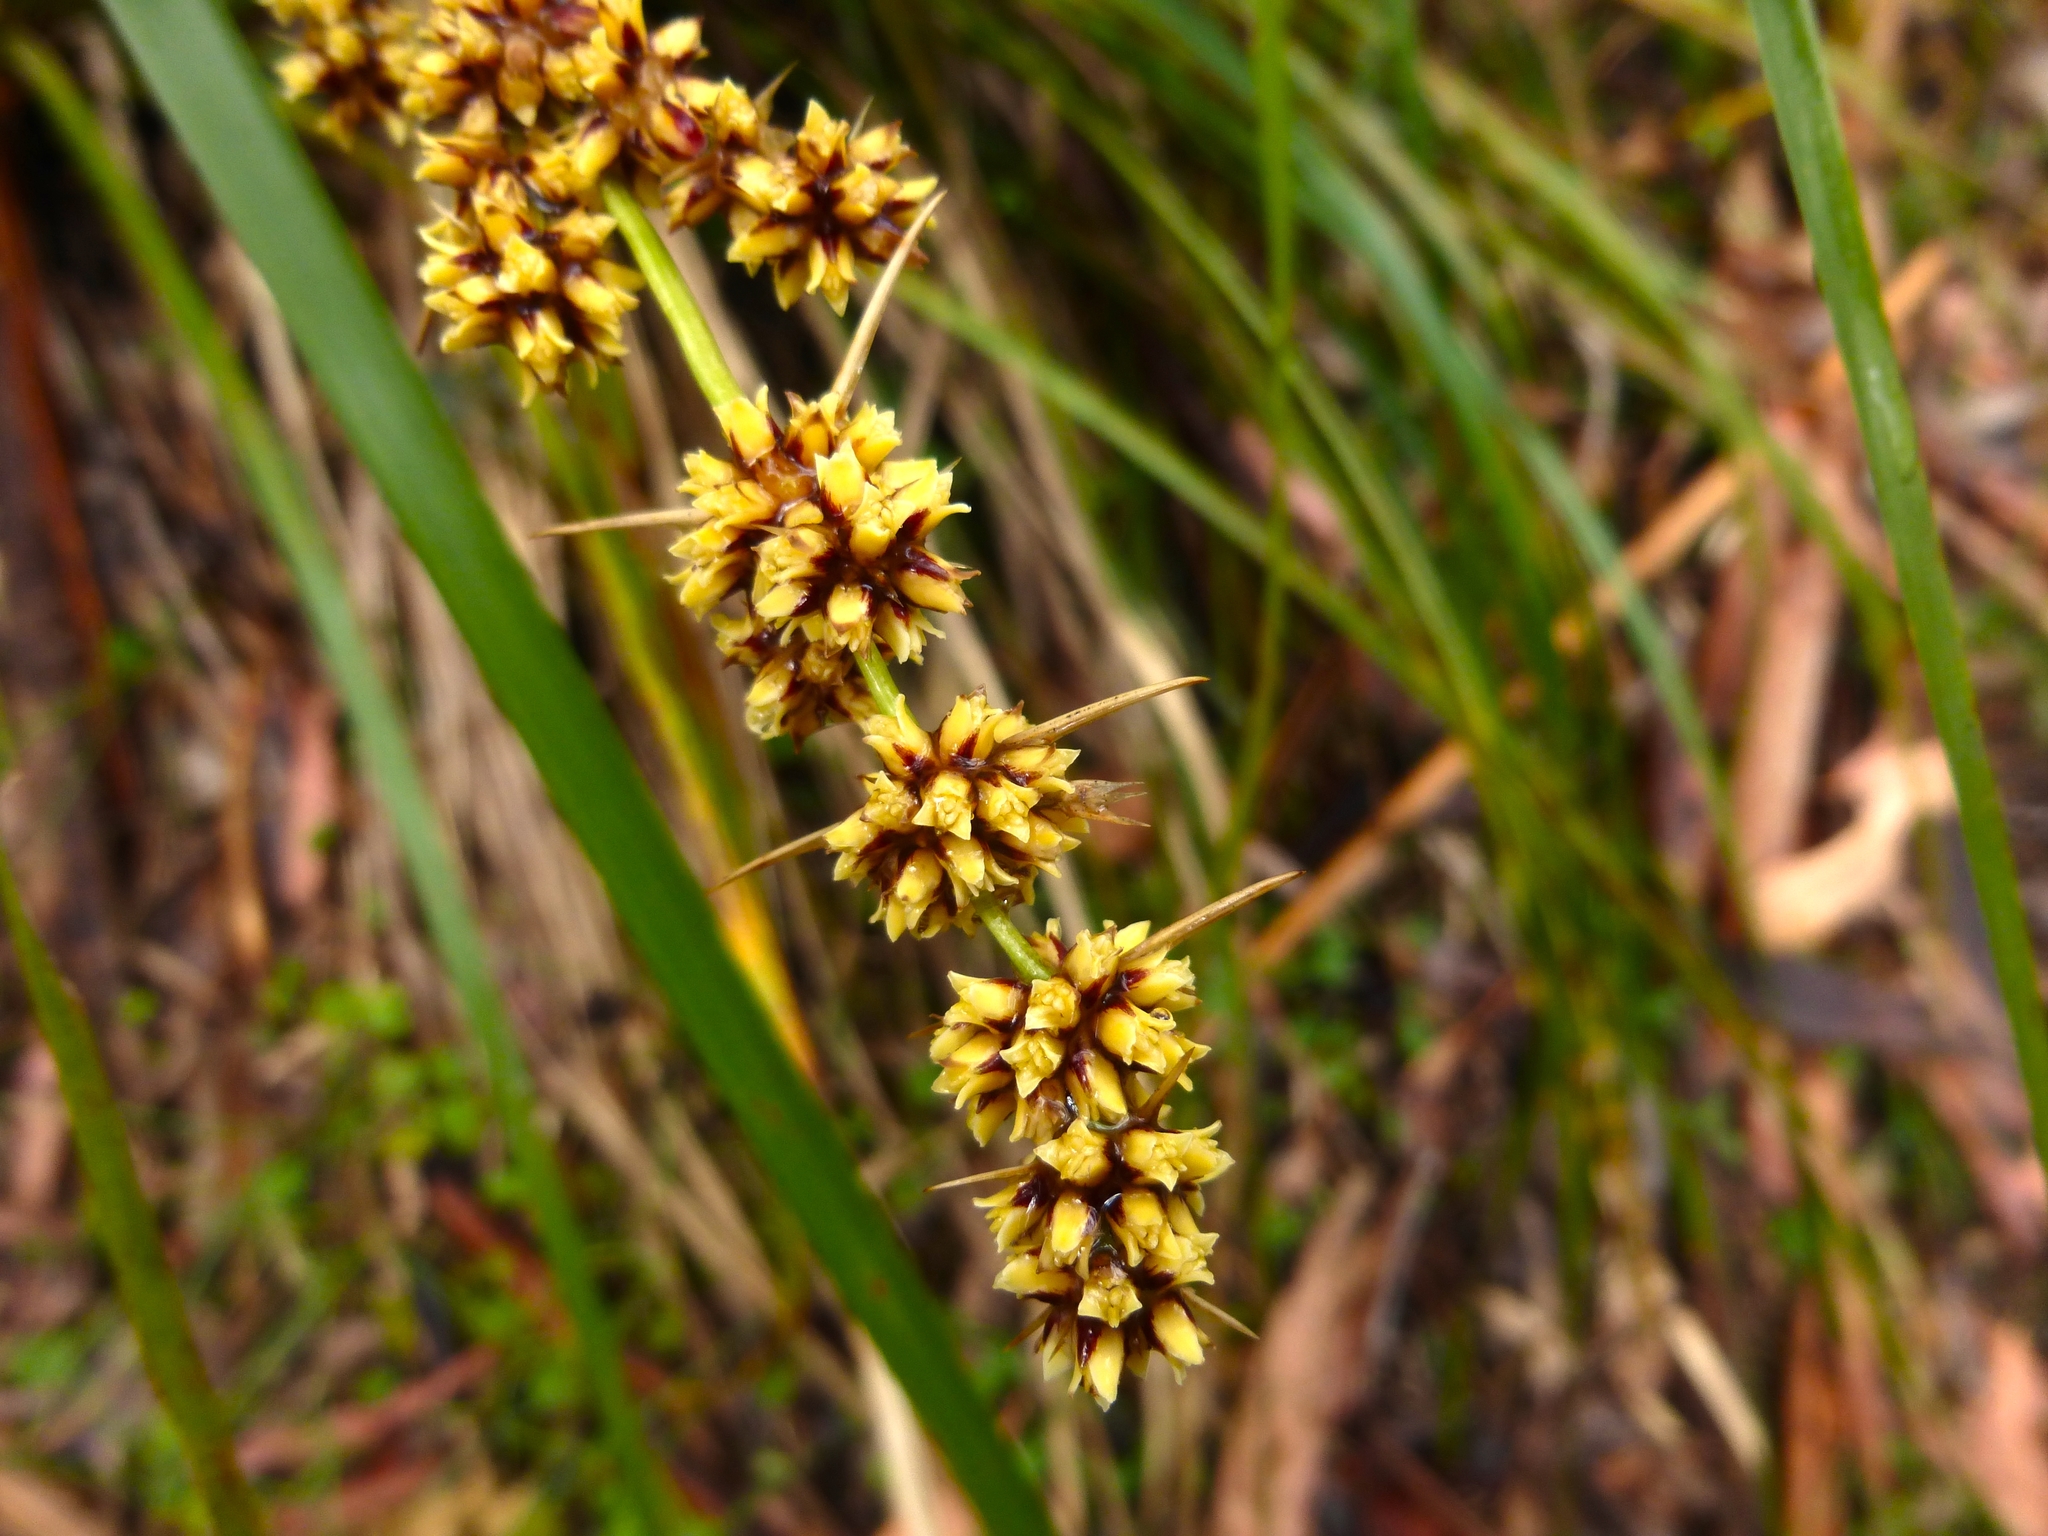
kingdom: Plantae
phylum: Tracheophyta
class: Liliopsida
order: Asparagales
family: Asparagaceae
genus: Lomandra
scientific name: Lomandra longifolia
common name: Longleaf mat-rush
